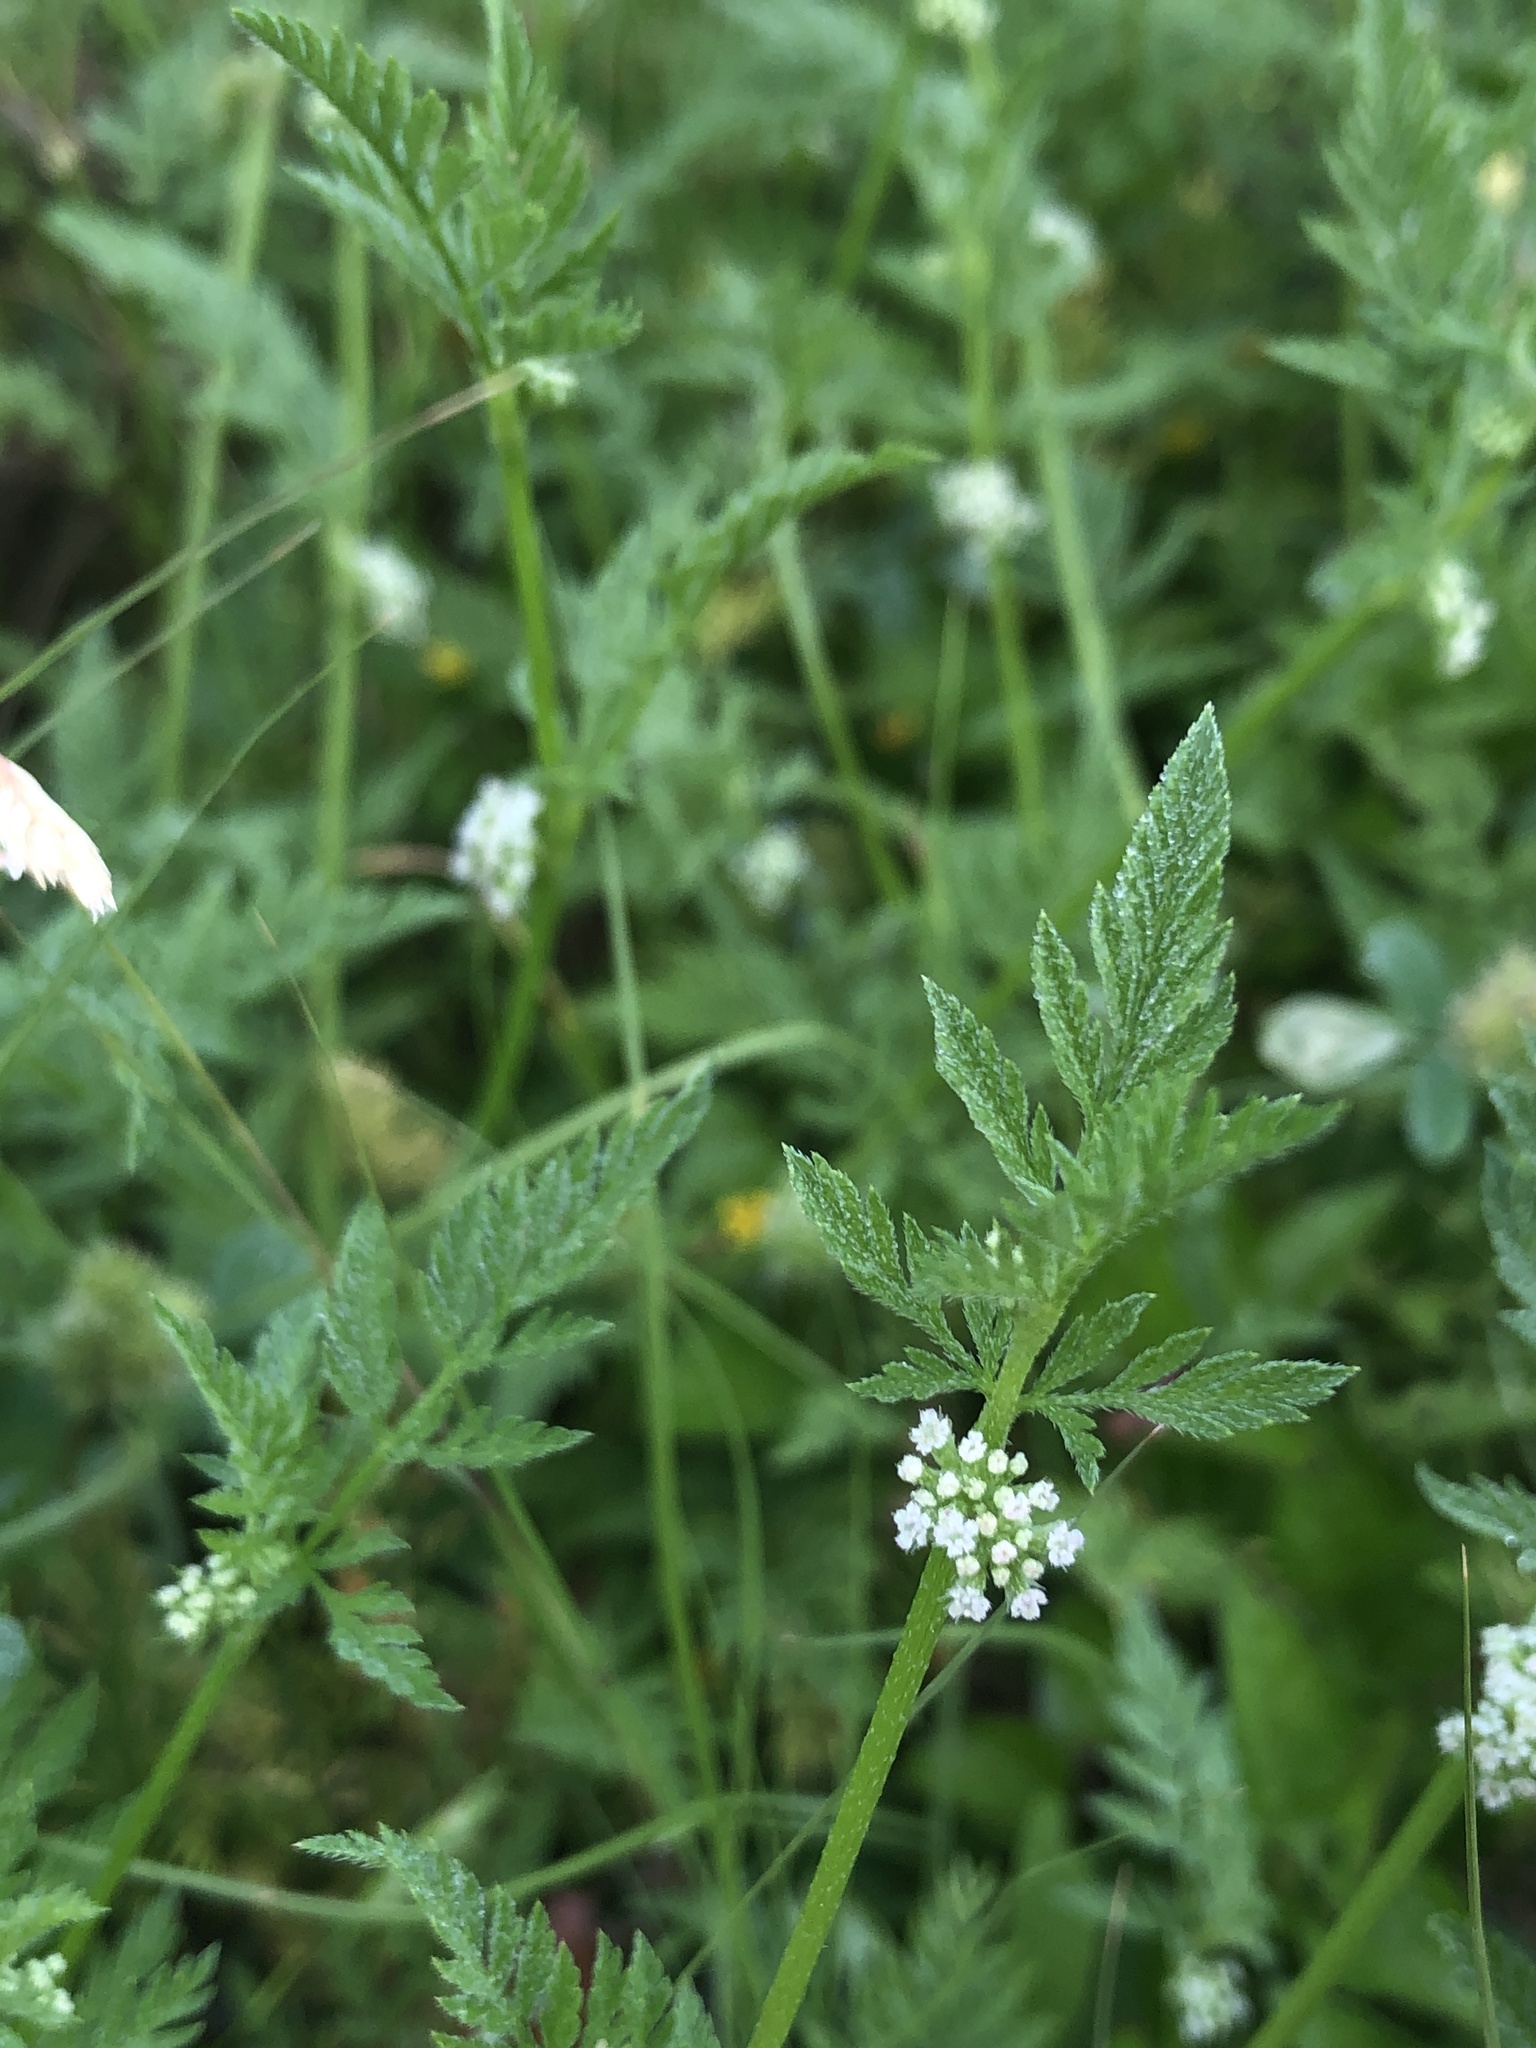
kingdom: Plantae
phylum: Tracheophyta
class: Magnoliopsida
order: Apiales
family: Apiaceae
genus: Torilis
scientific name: Torilis nodosa
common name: Knotted hedge-parsley
